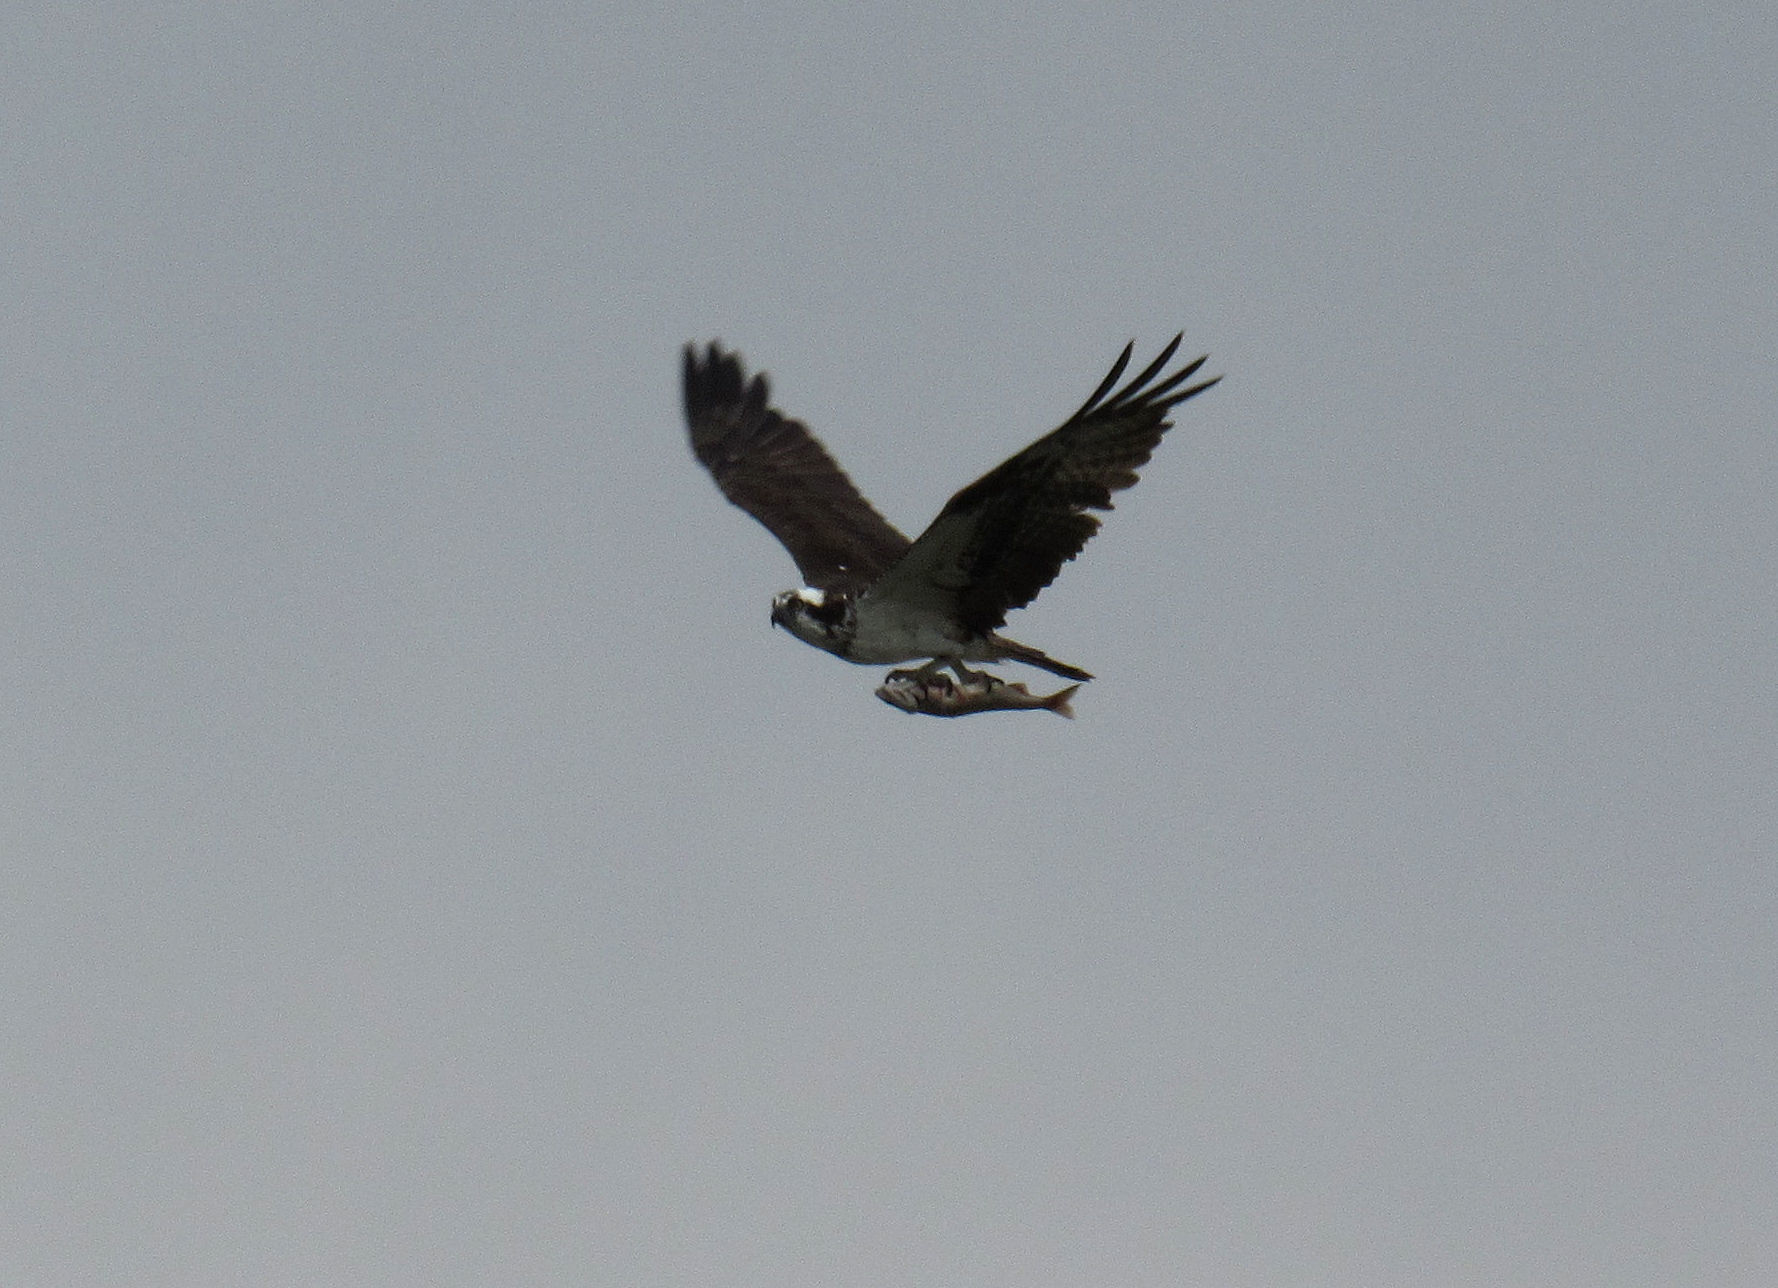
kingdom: Animalia
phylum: Chordata
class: Aves
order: Accipitriformes
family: Pandionidae
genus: Pandion
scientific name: Pandion haliaetus
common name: Osprey
